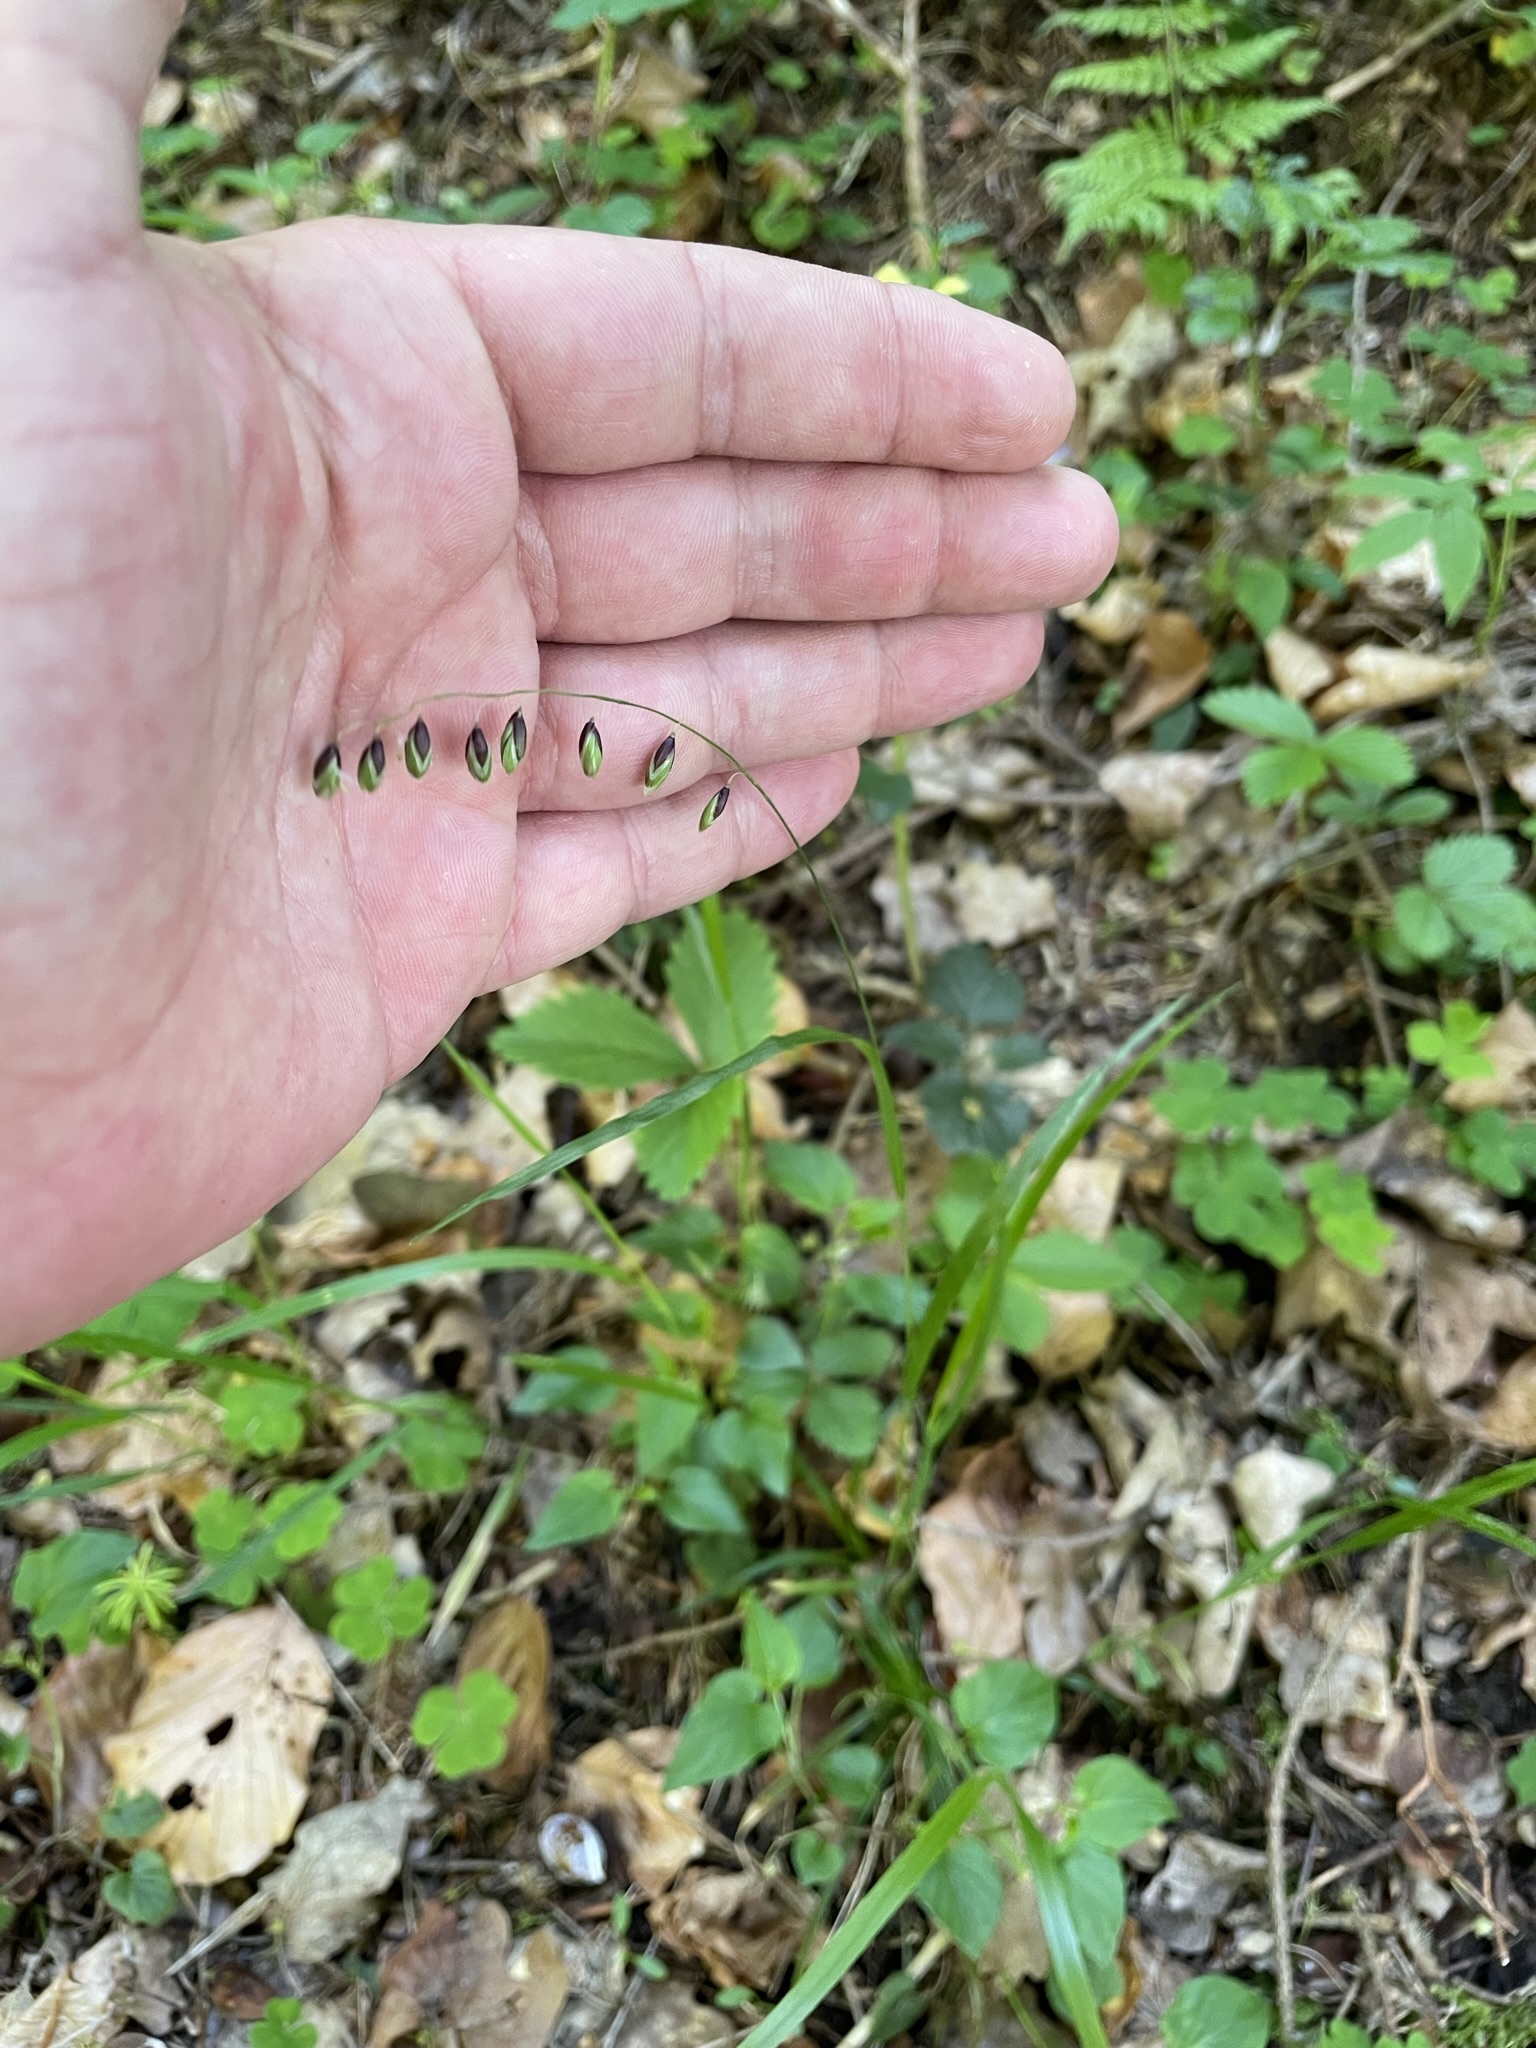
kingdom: Plantae
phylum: Tracheophyta
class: Liliopsida
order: Poales
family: Poaceae
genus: Melica
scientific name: Melica nutans
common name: Mountain melick
